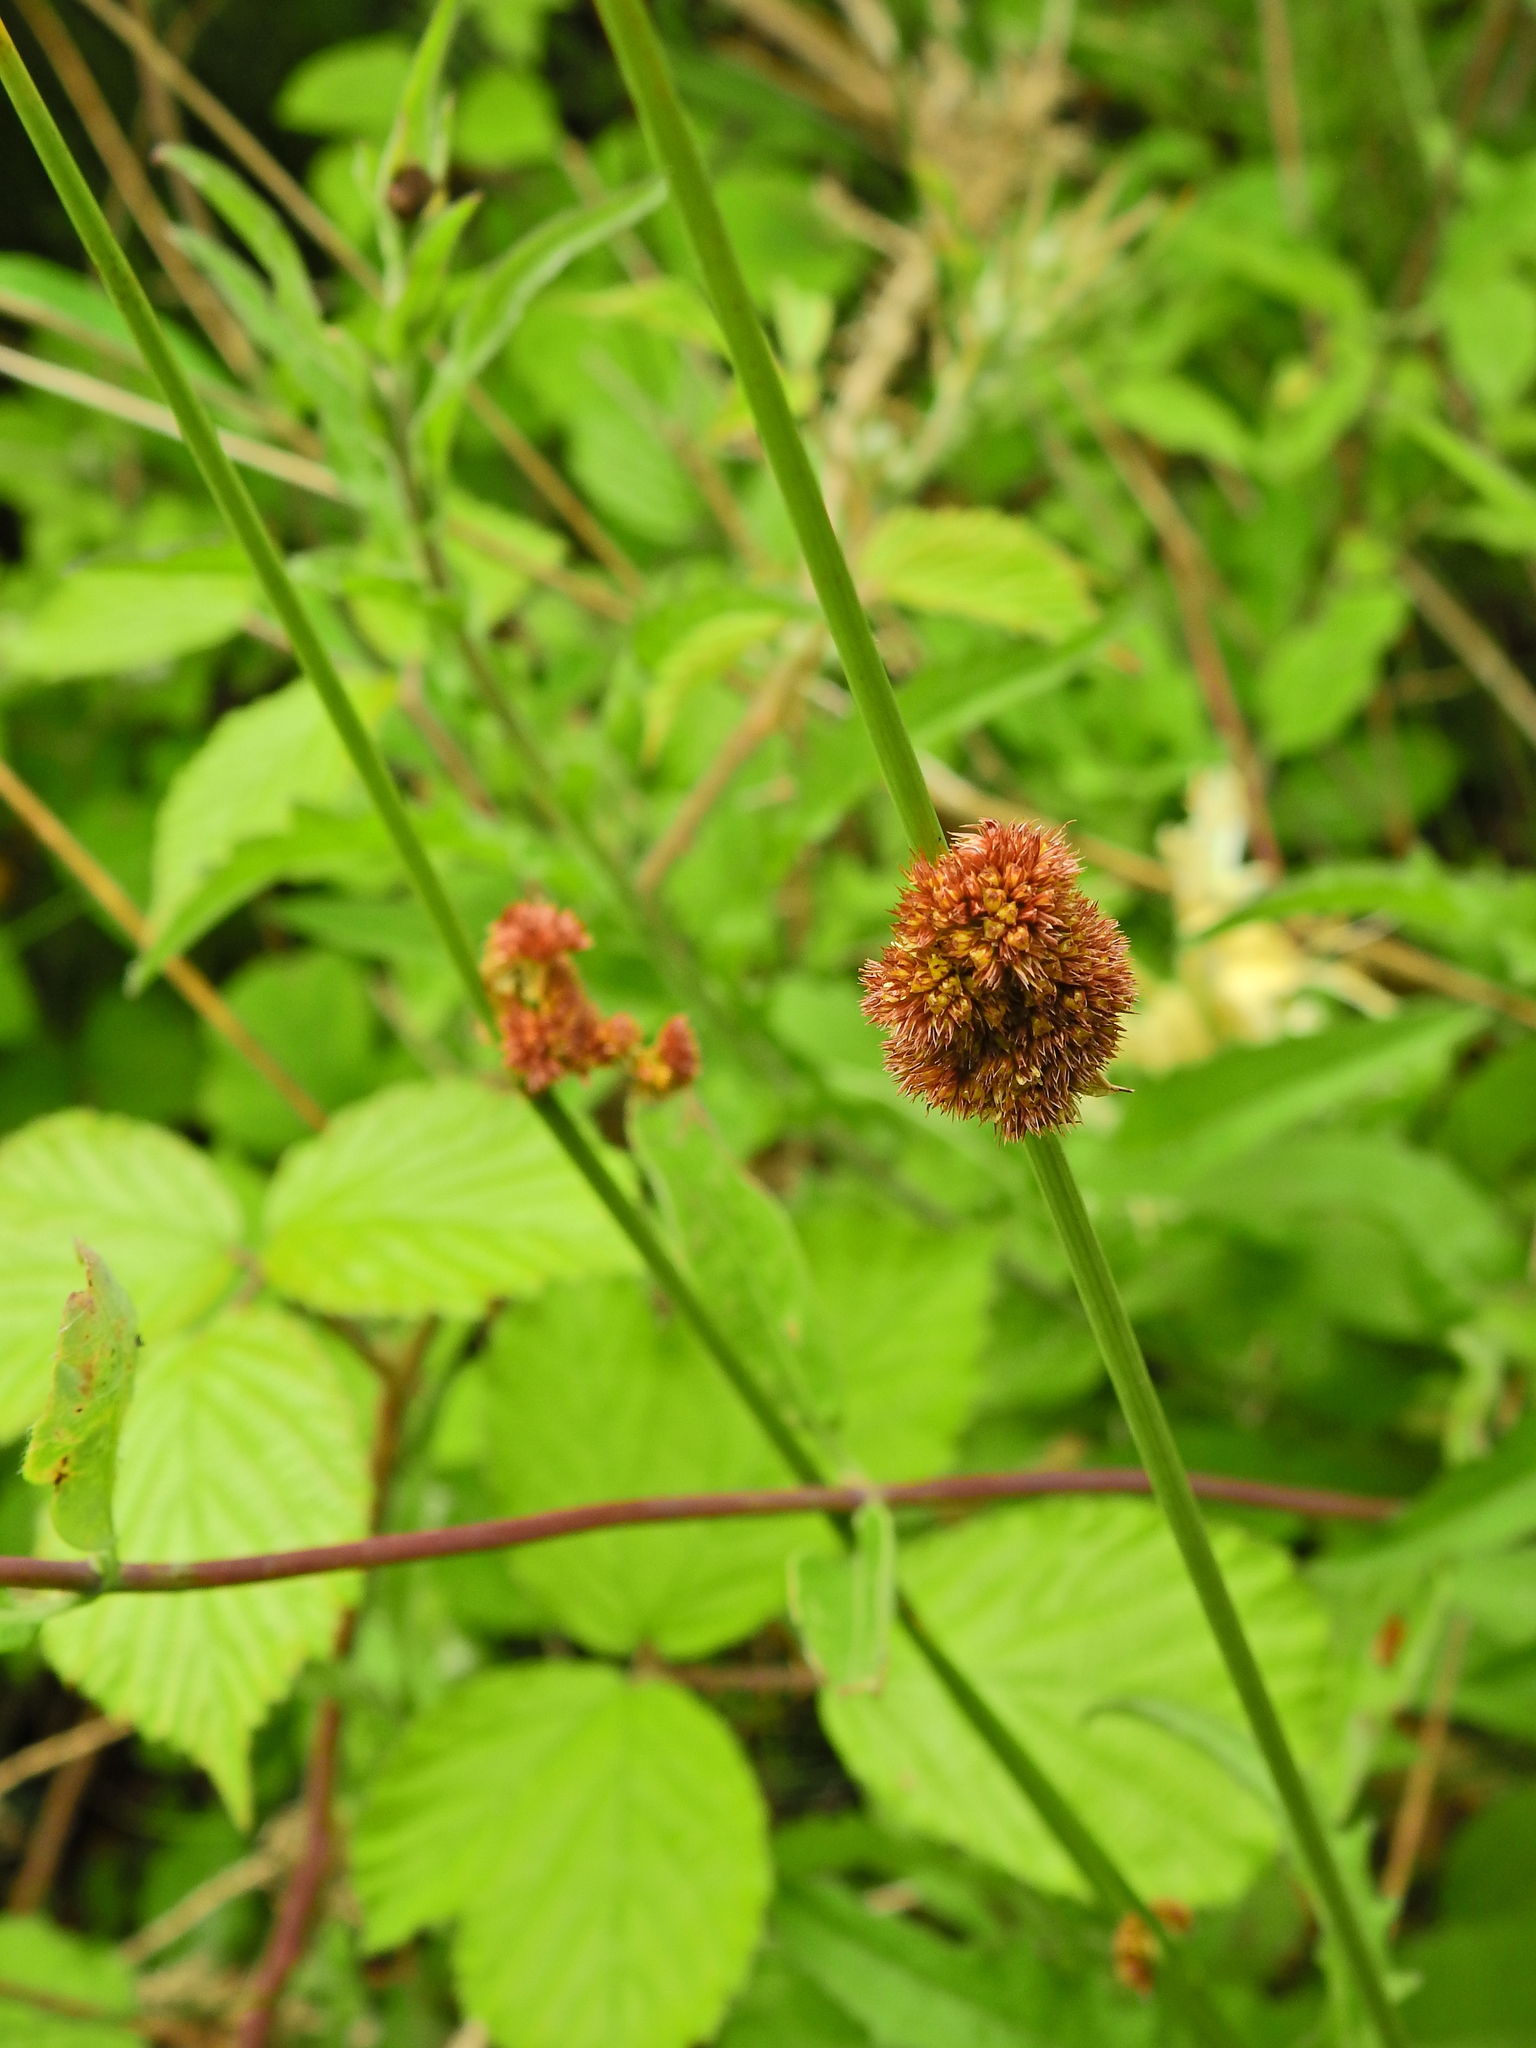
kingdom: Plantae
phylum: Tracheophyta
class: Liliopsida
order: Poales
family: Juncaceae
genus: Juncus
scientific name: Juncus conglomeratus
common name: Compact rush
